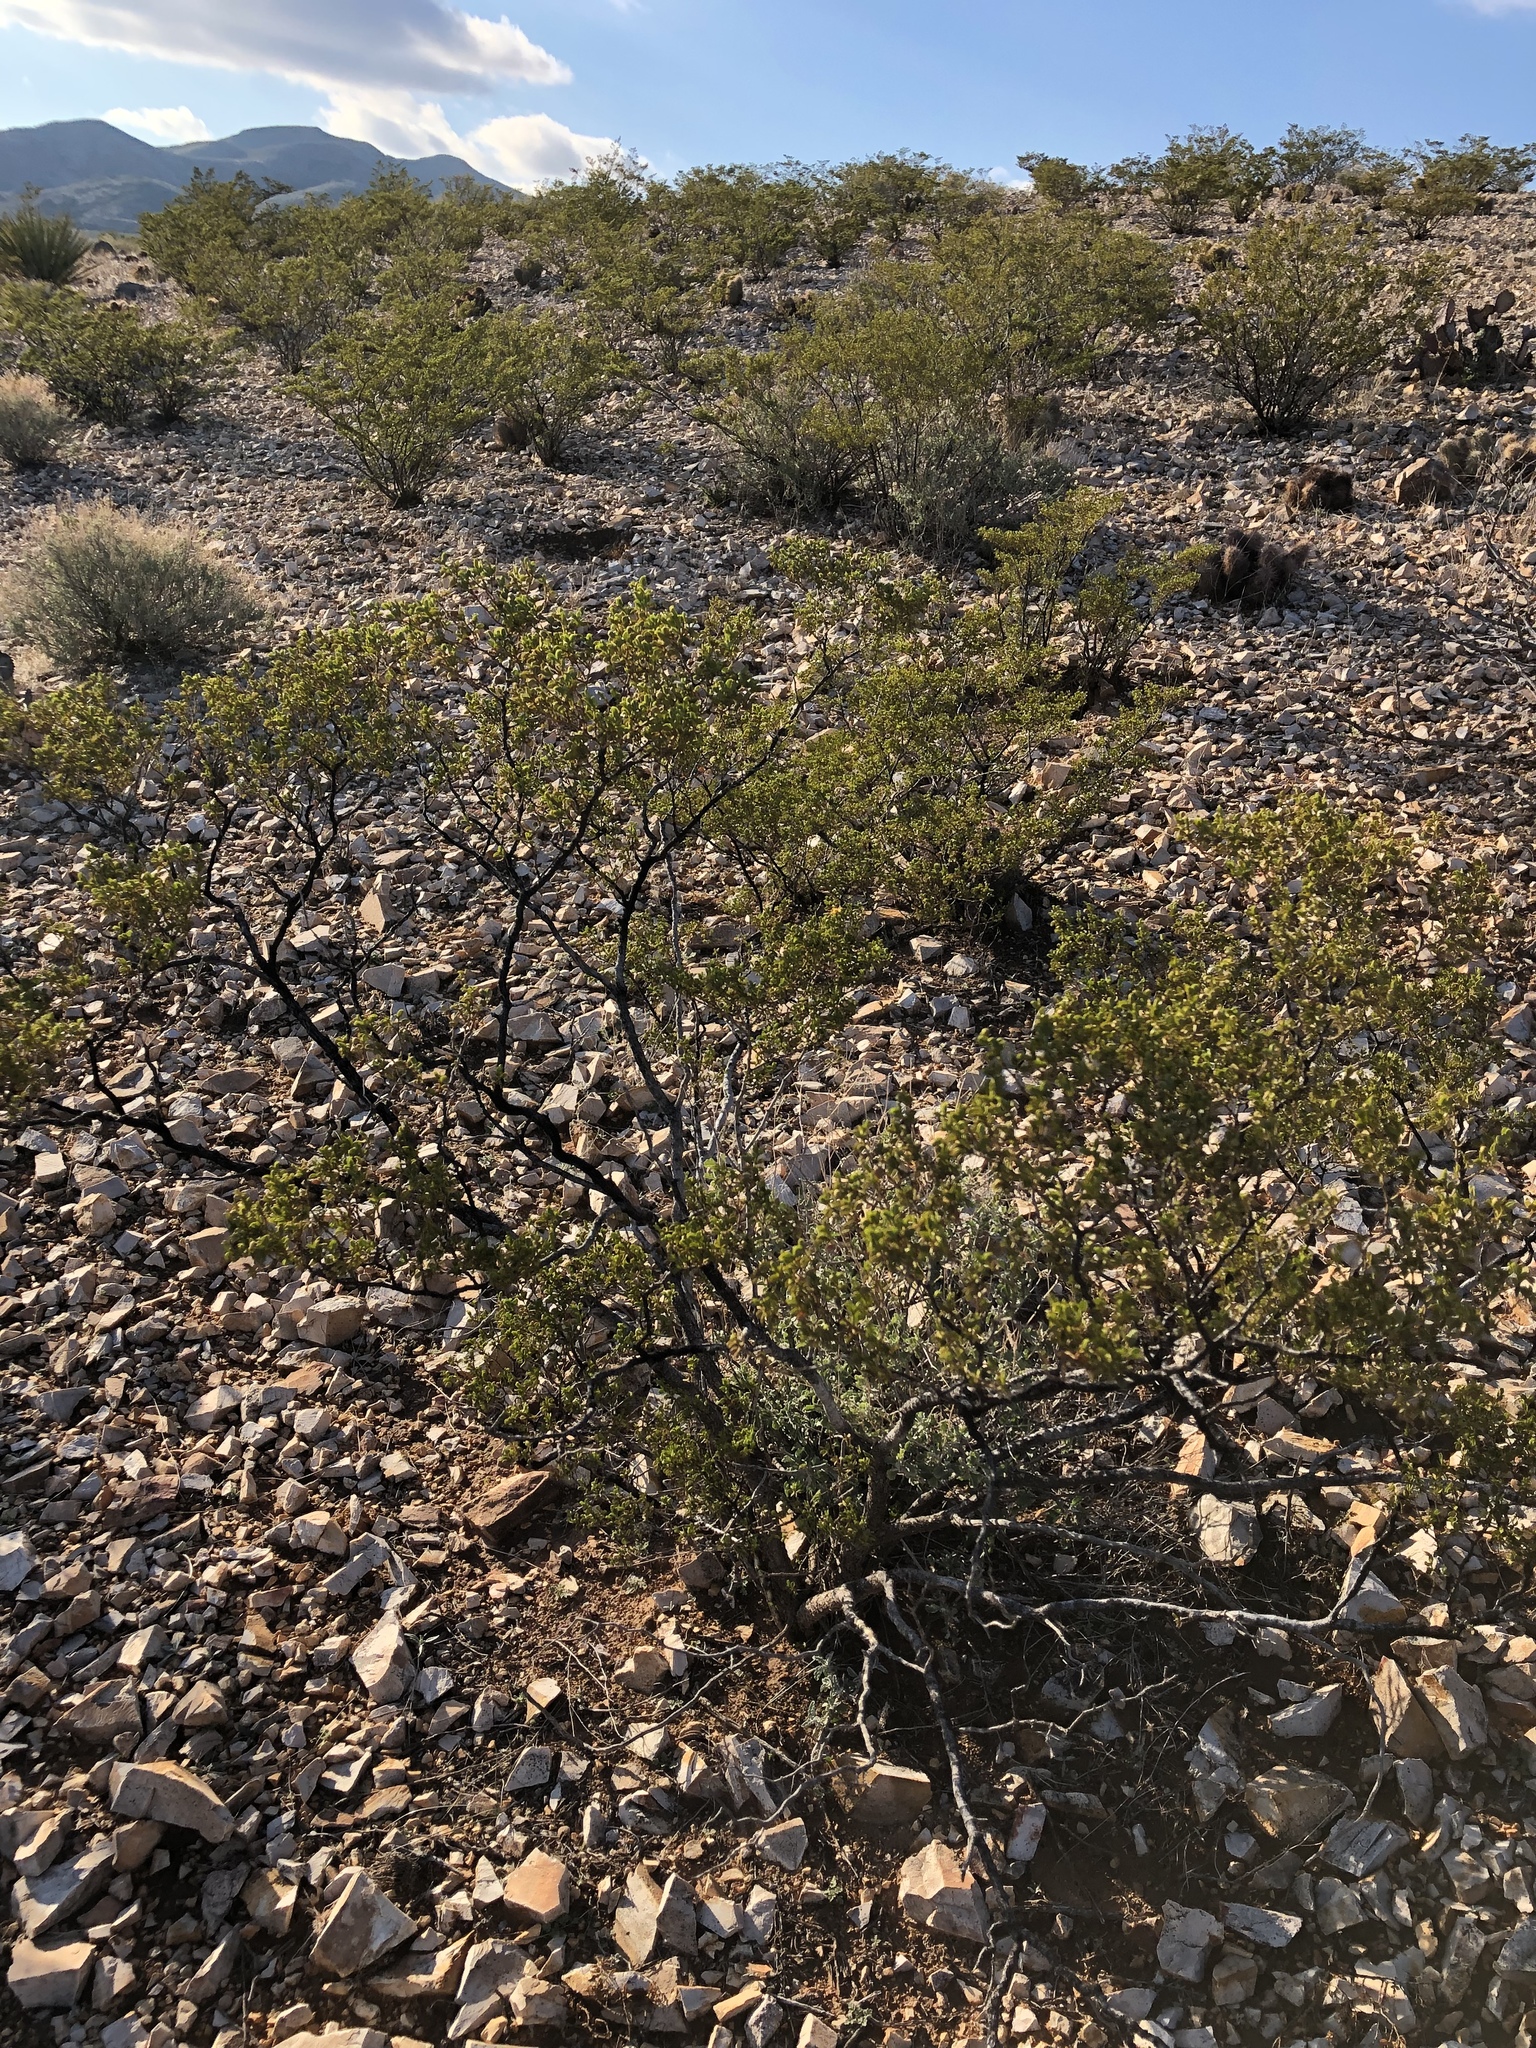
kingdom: Plantae
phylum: Tracheophyta
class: Magnoliopsida
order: Zygophyllales
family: Zygophyllaceae
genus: Larrea
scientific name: Larrea tridentata
